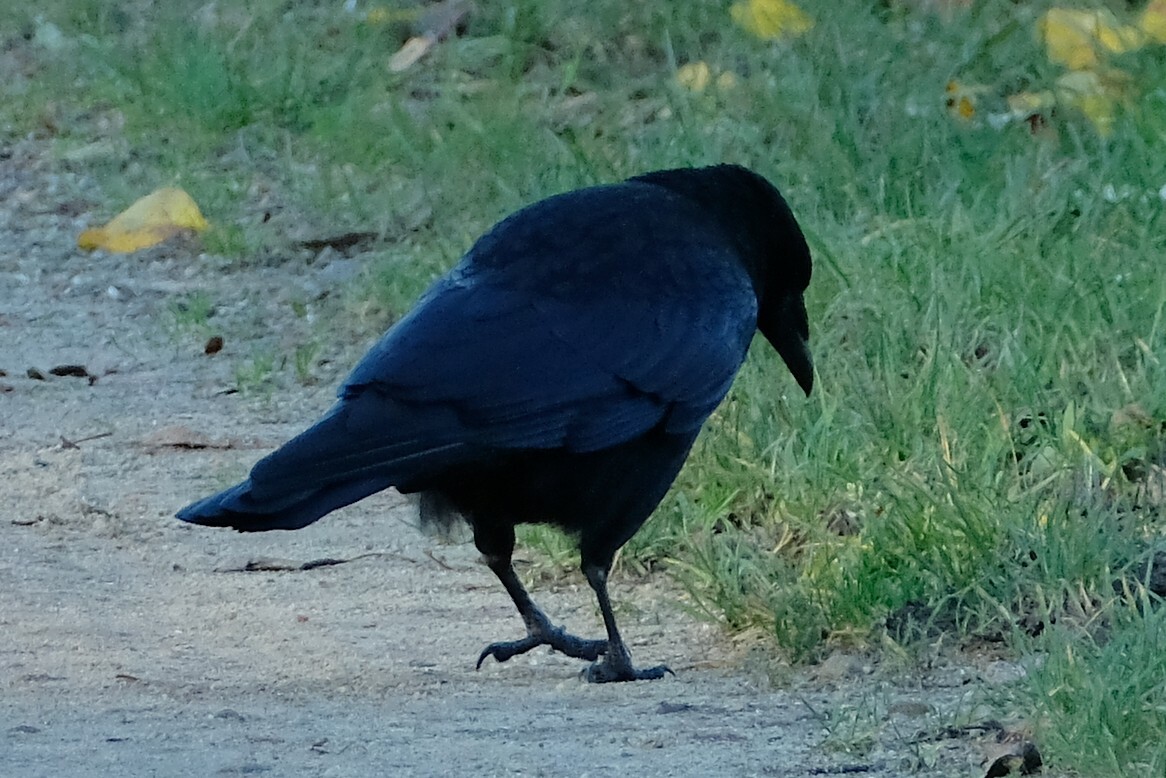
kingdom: Animalia
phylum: Chordata
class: Aves
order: Passeriformes
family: Corvidae
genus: Corvus
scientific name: Corvus corone
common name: Carrion crow
